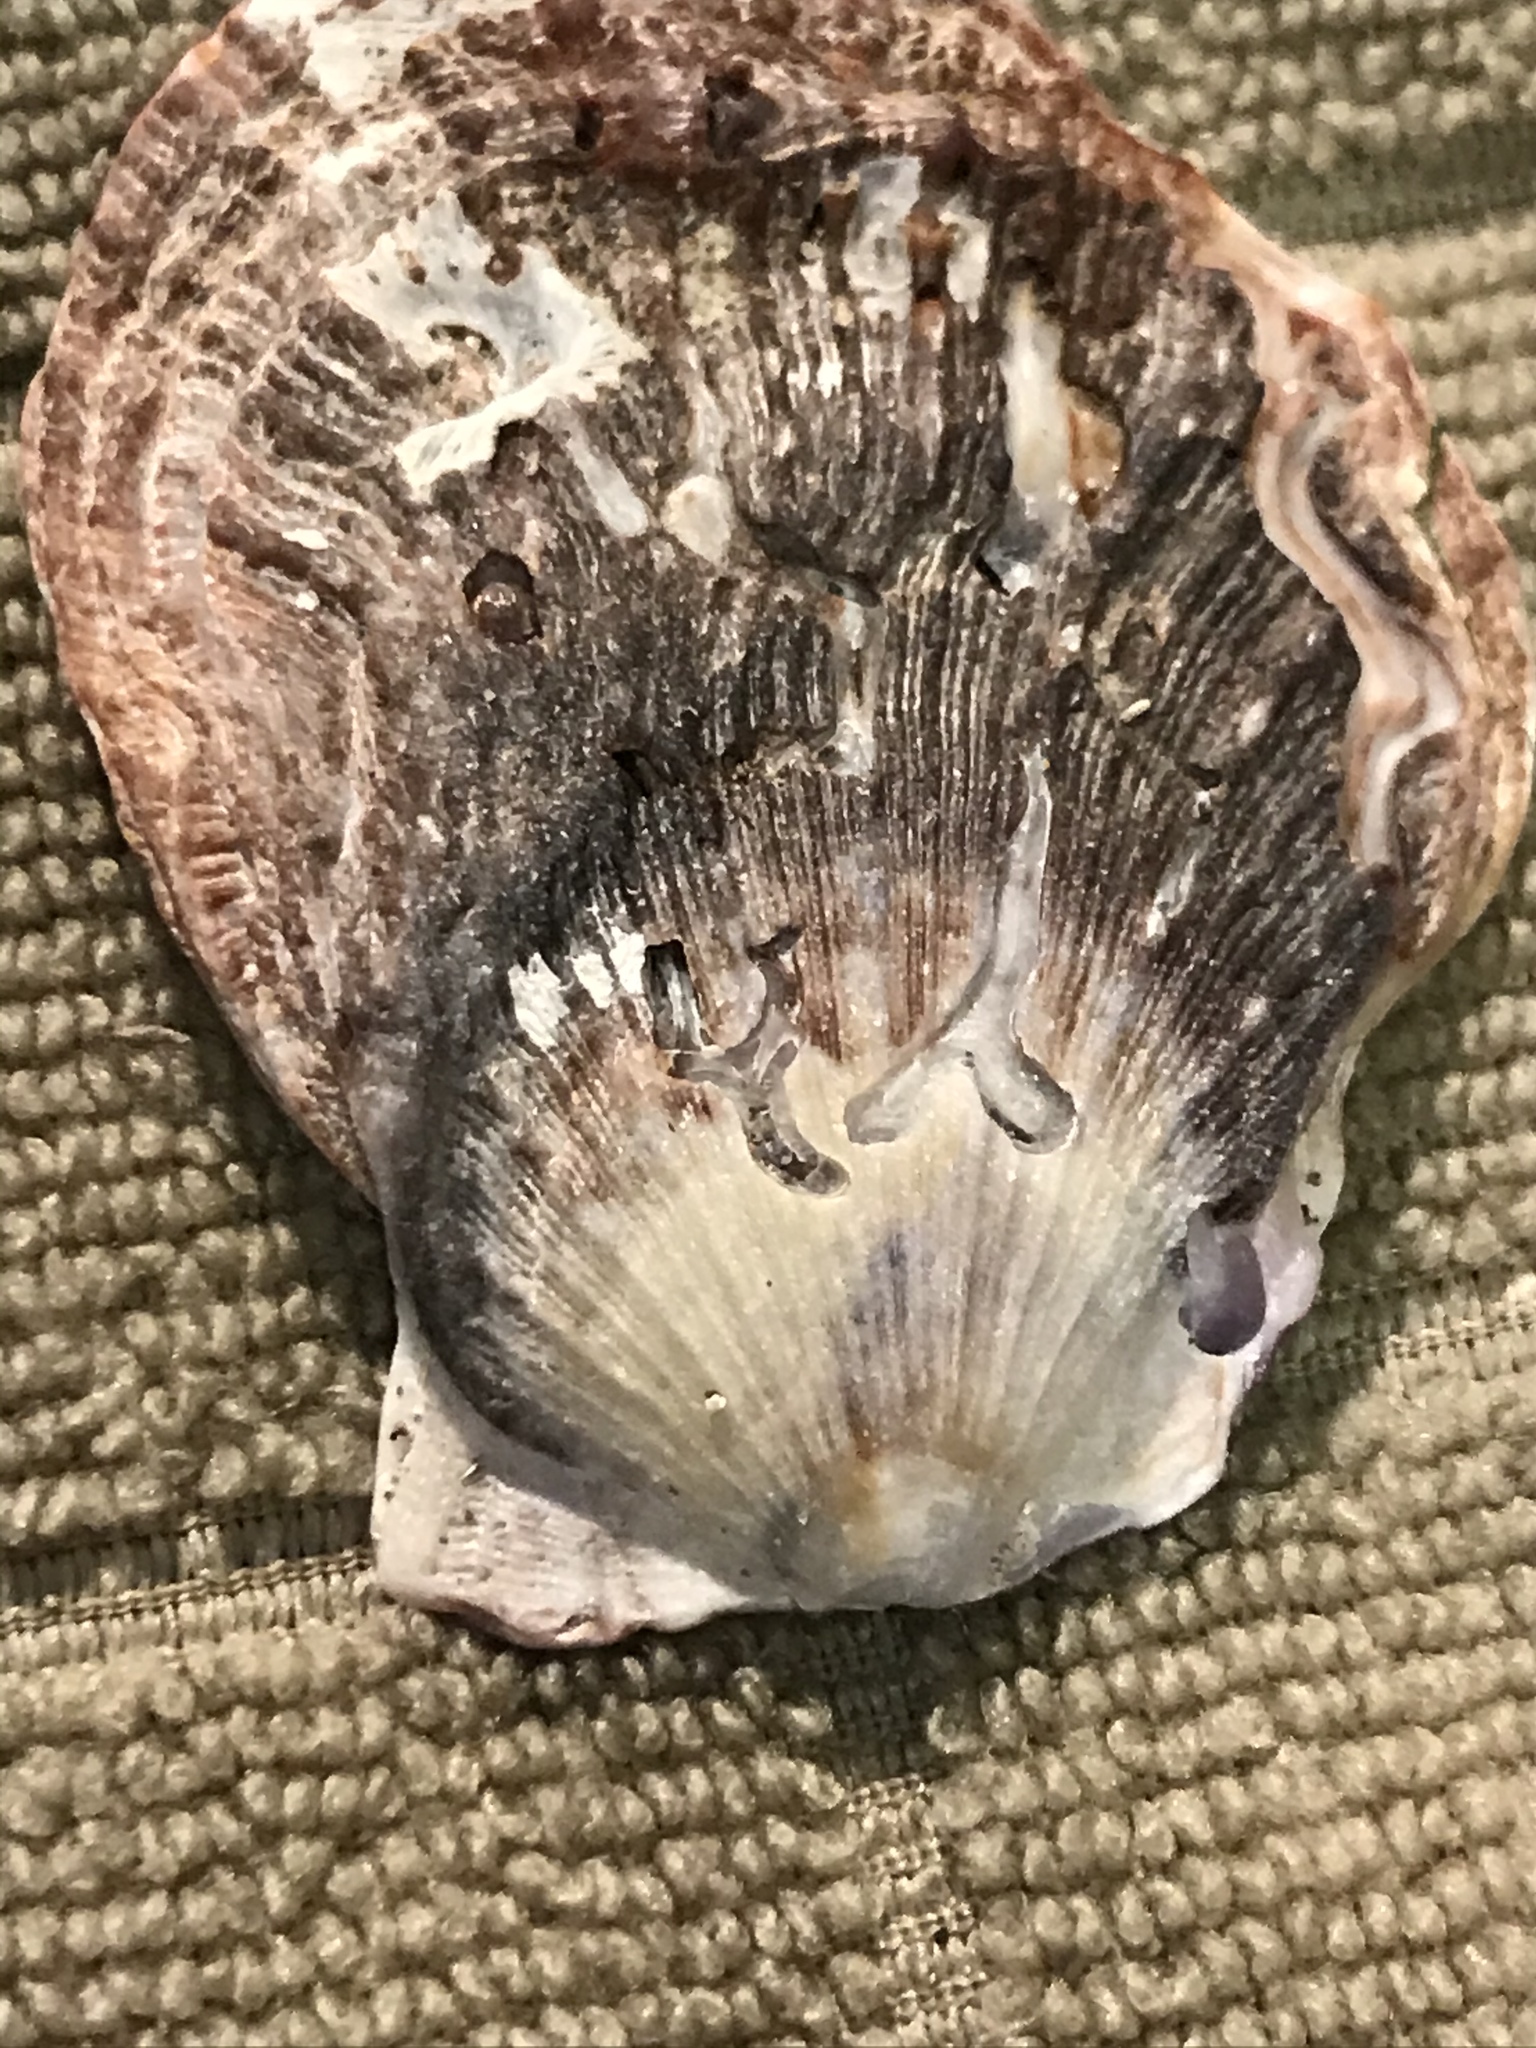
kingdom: Animalia
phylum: Mollusca
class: Bivalvia
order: Pectinida
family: Pectinidae
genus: Crassadoma
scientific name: Crassadoma gigantea
